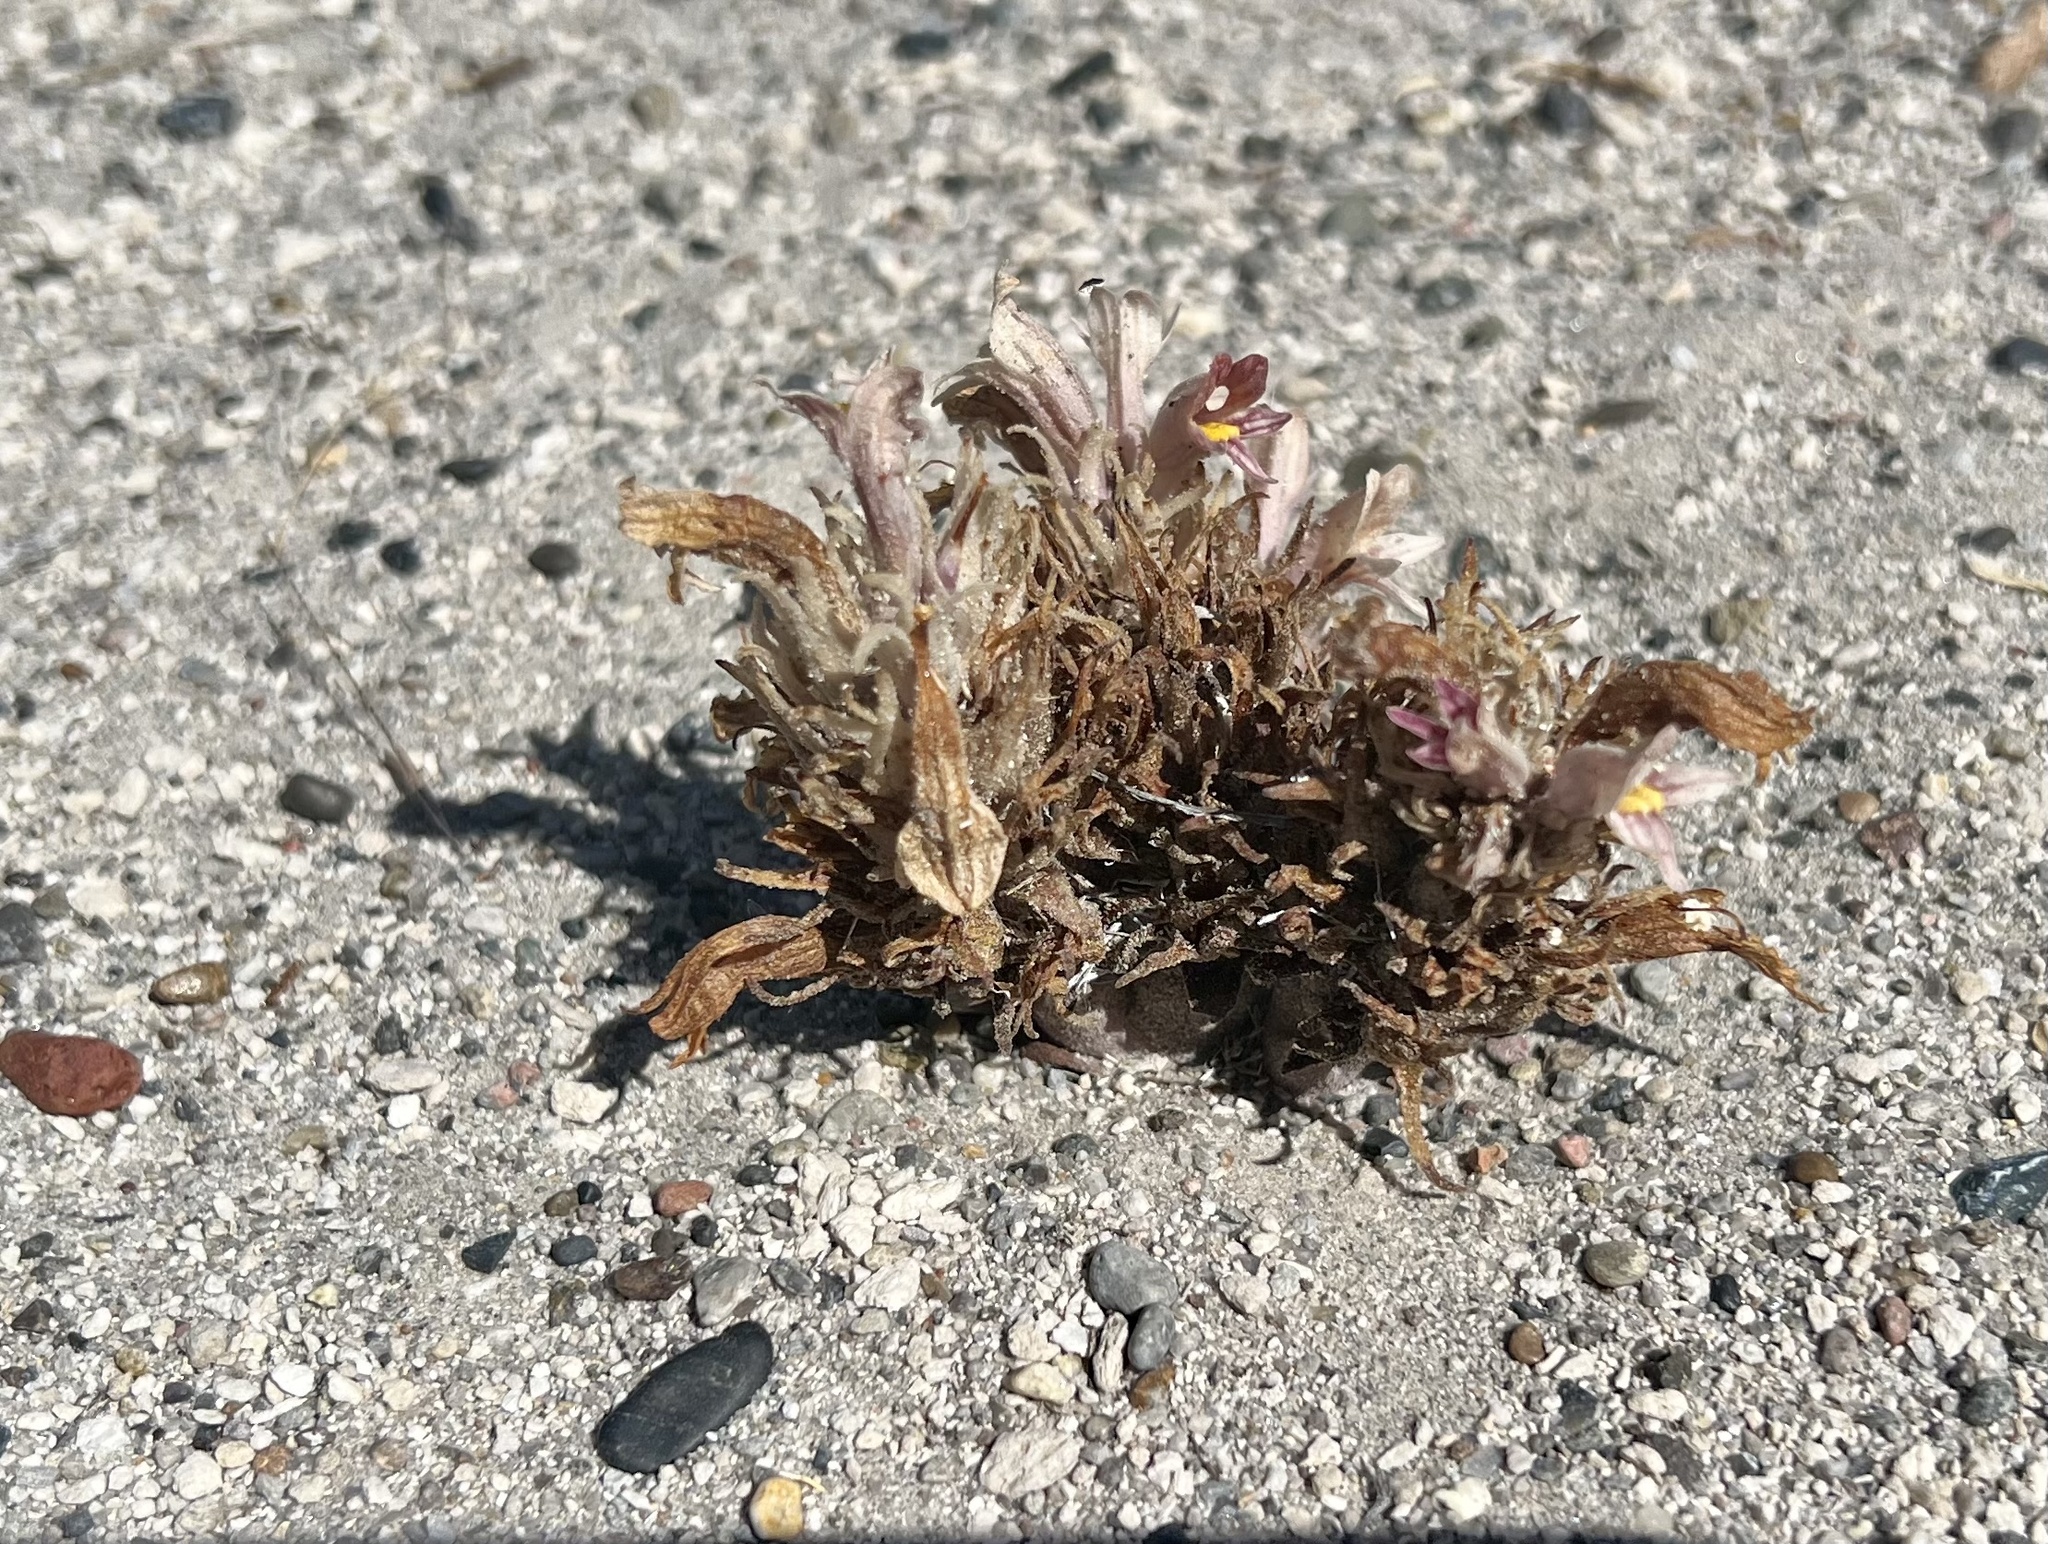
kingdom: Plantae
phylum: Tracheophyta
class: Magnoliopsida
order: Lamiales
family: Orobanchaceae
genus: Aphyllon
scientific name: Aphyllon corymbosum
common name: Flat-top broomrape
